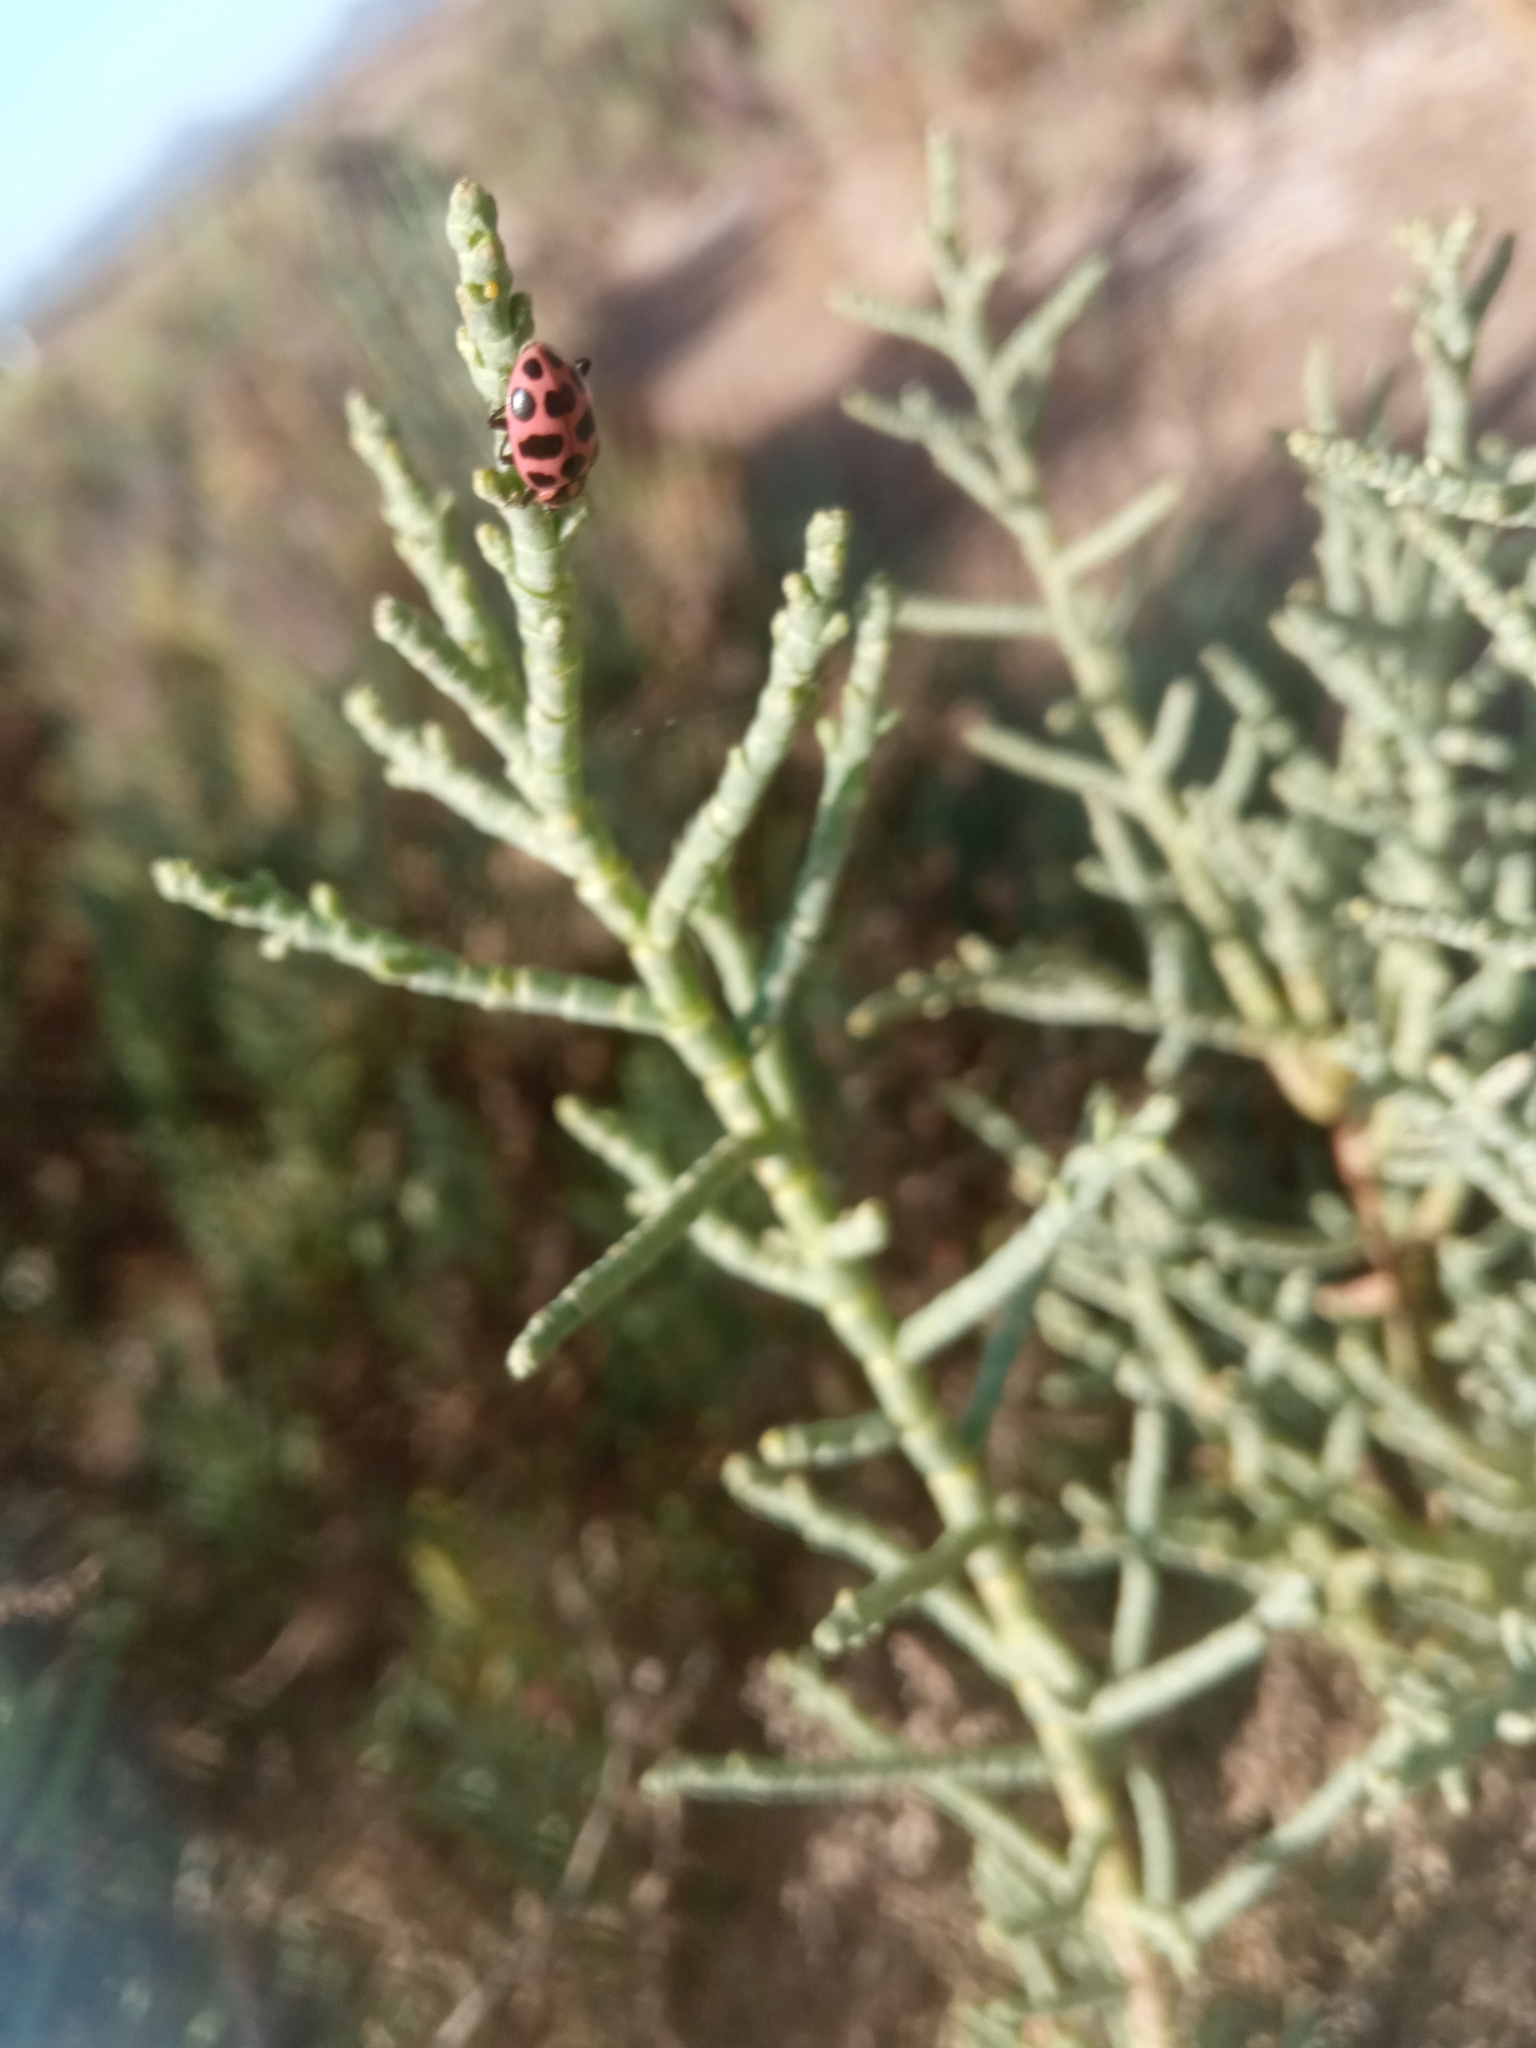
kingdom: Animalia
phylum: Arthropoda
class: Insecta
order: Coleoptera
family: Coccinellidae
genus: Coleomegilla
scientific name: Coleomegilla maculata
